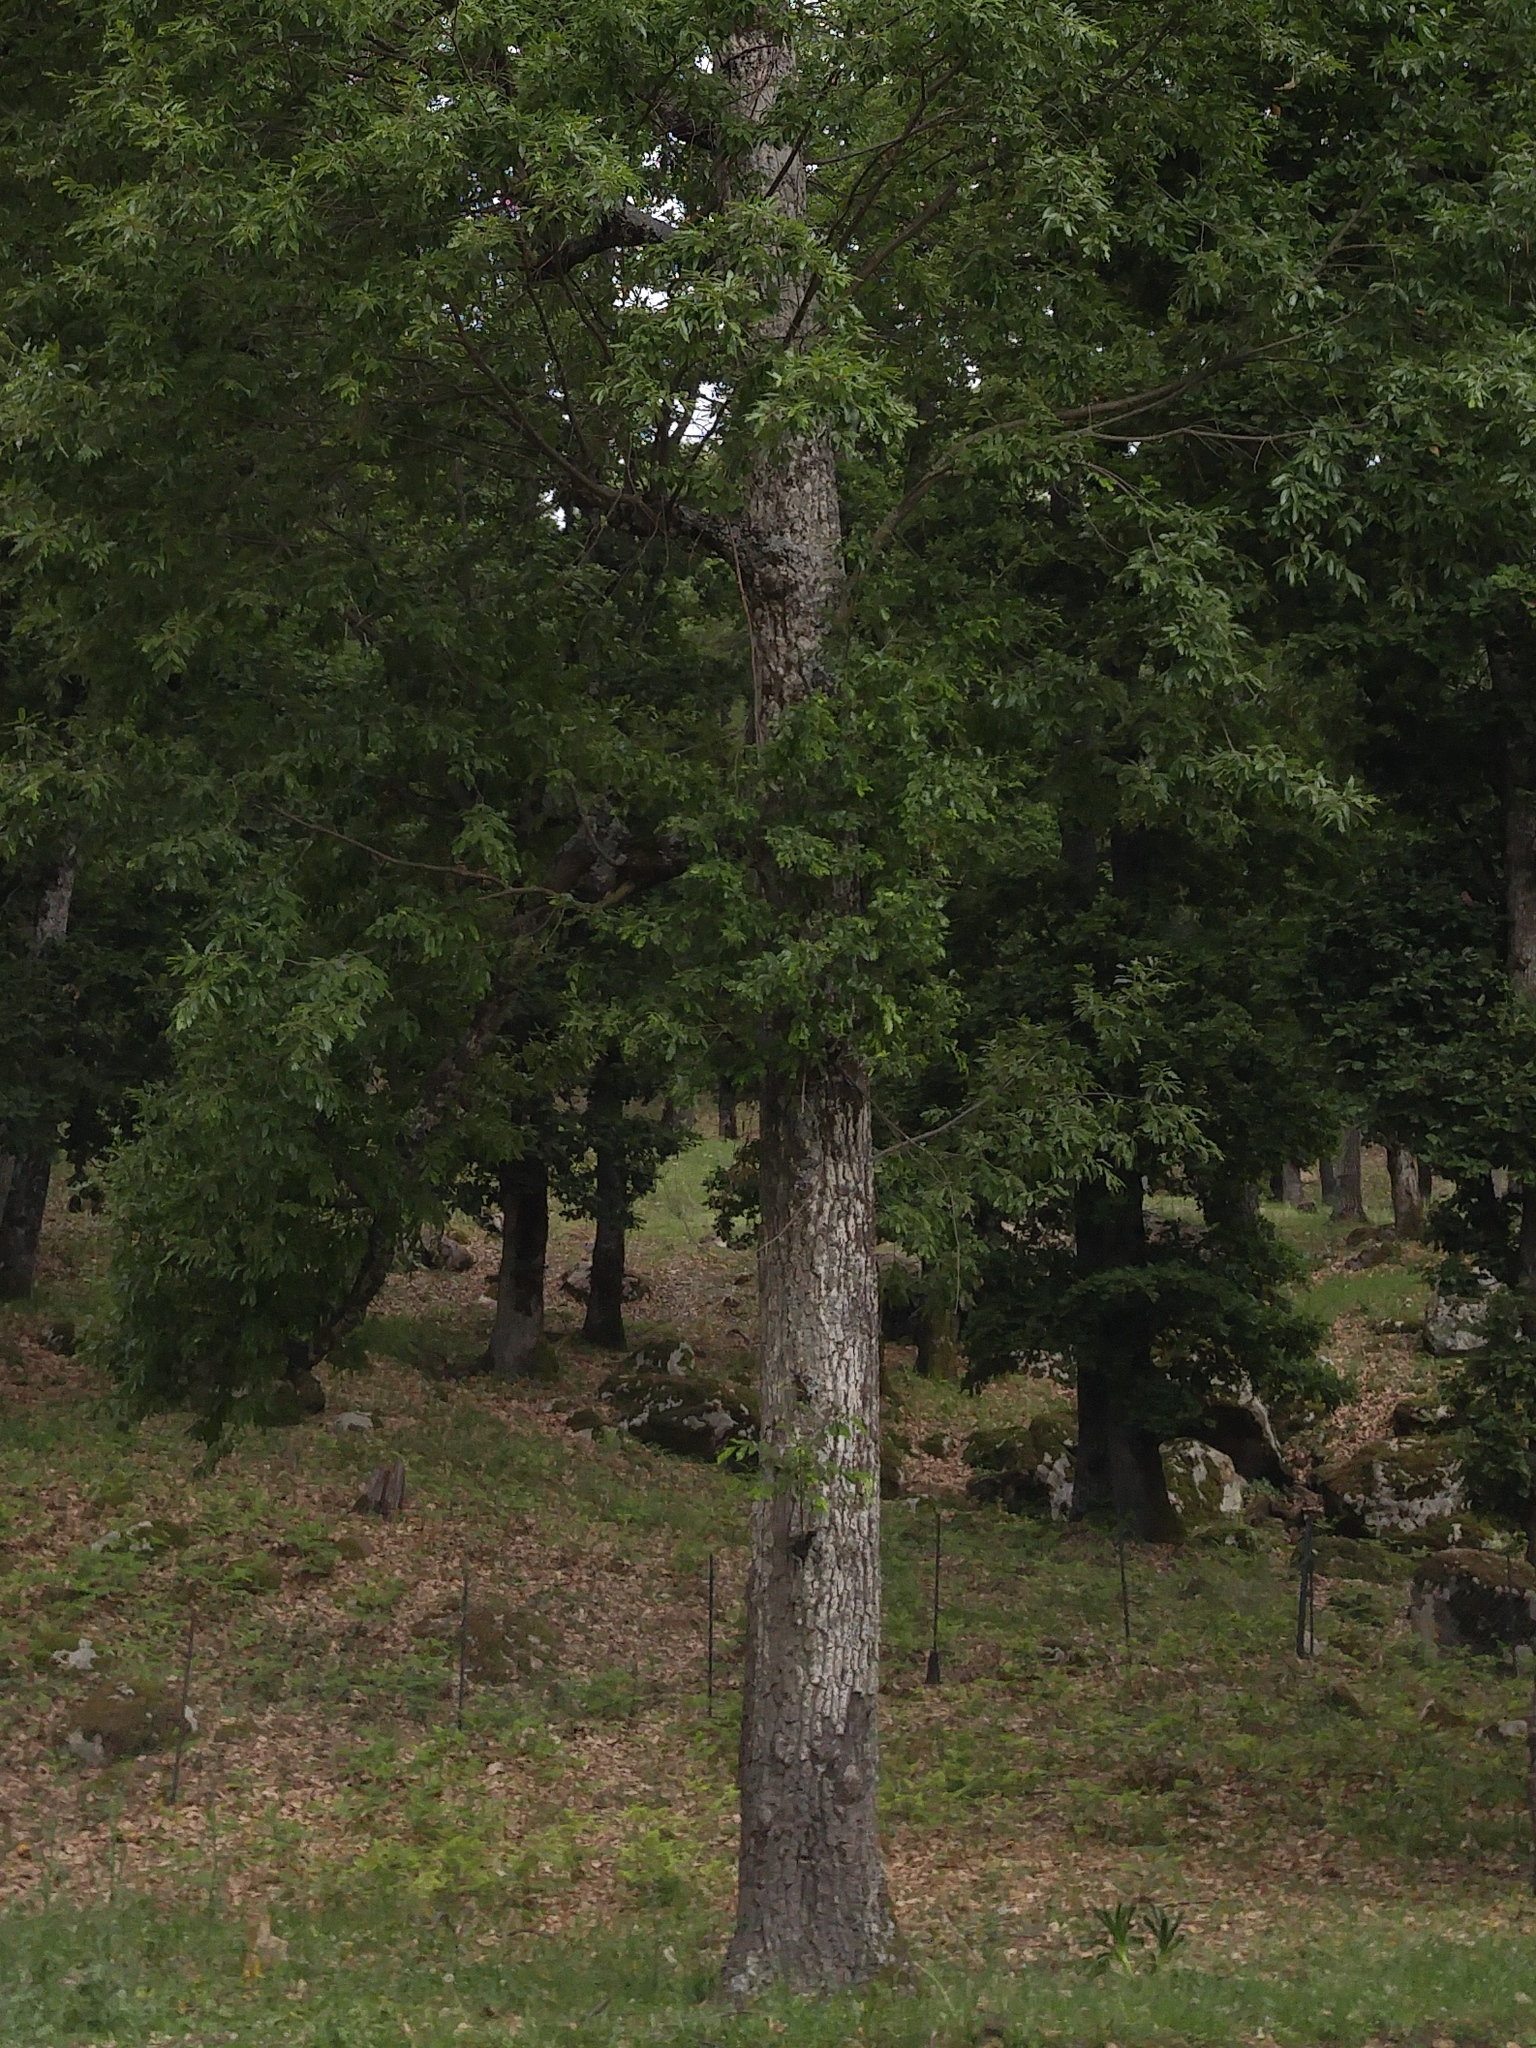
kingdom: Plantae
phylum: Tracheophyta
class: Magnoliopsida
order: Fagales
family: Fagaceae
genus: Quercus
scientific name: Quercus afares
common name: African oak
